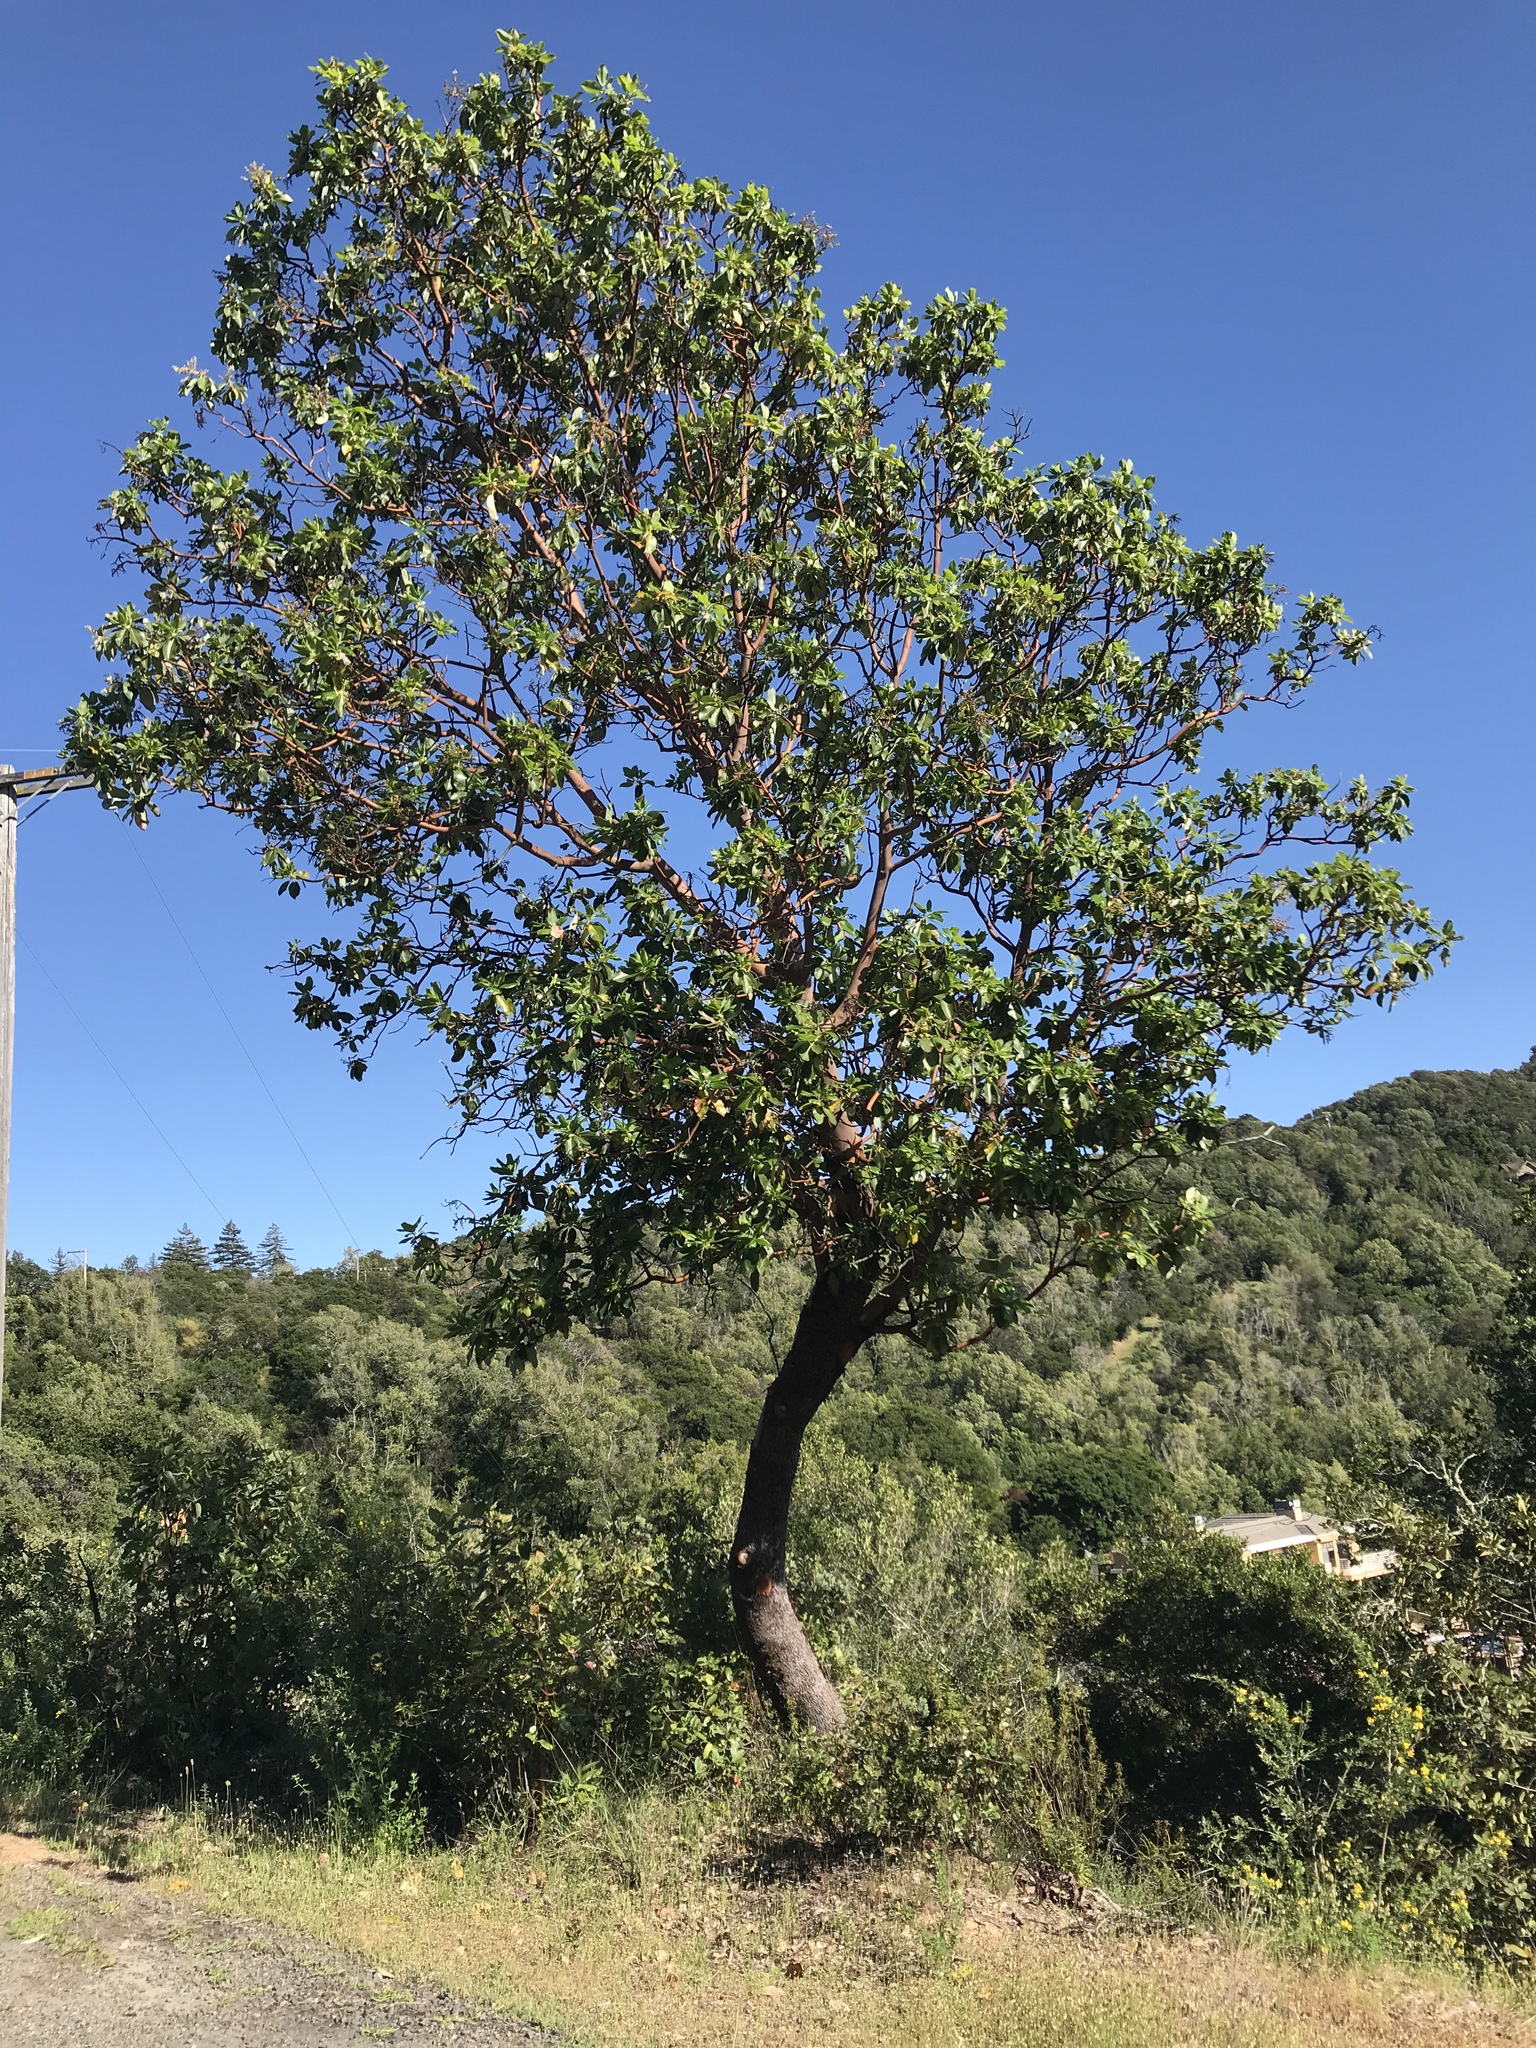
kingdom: Plantae
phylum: Tracheophyta
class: Magnoliopsida
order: Ericales
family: Ericaceae
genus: Arbutus
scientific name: Arbutus menziesii
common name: Pacific madrone
